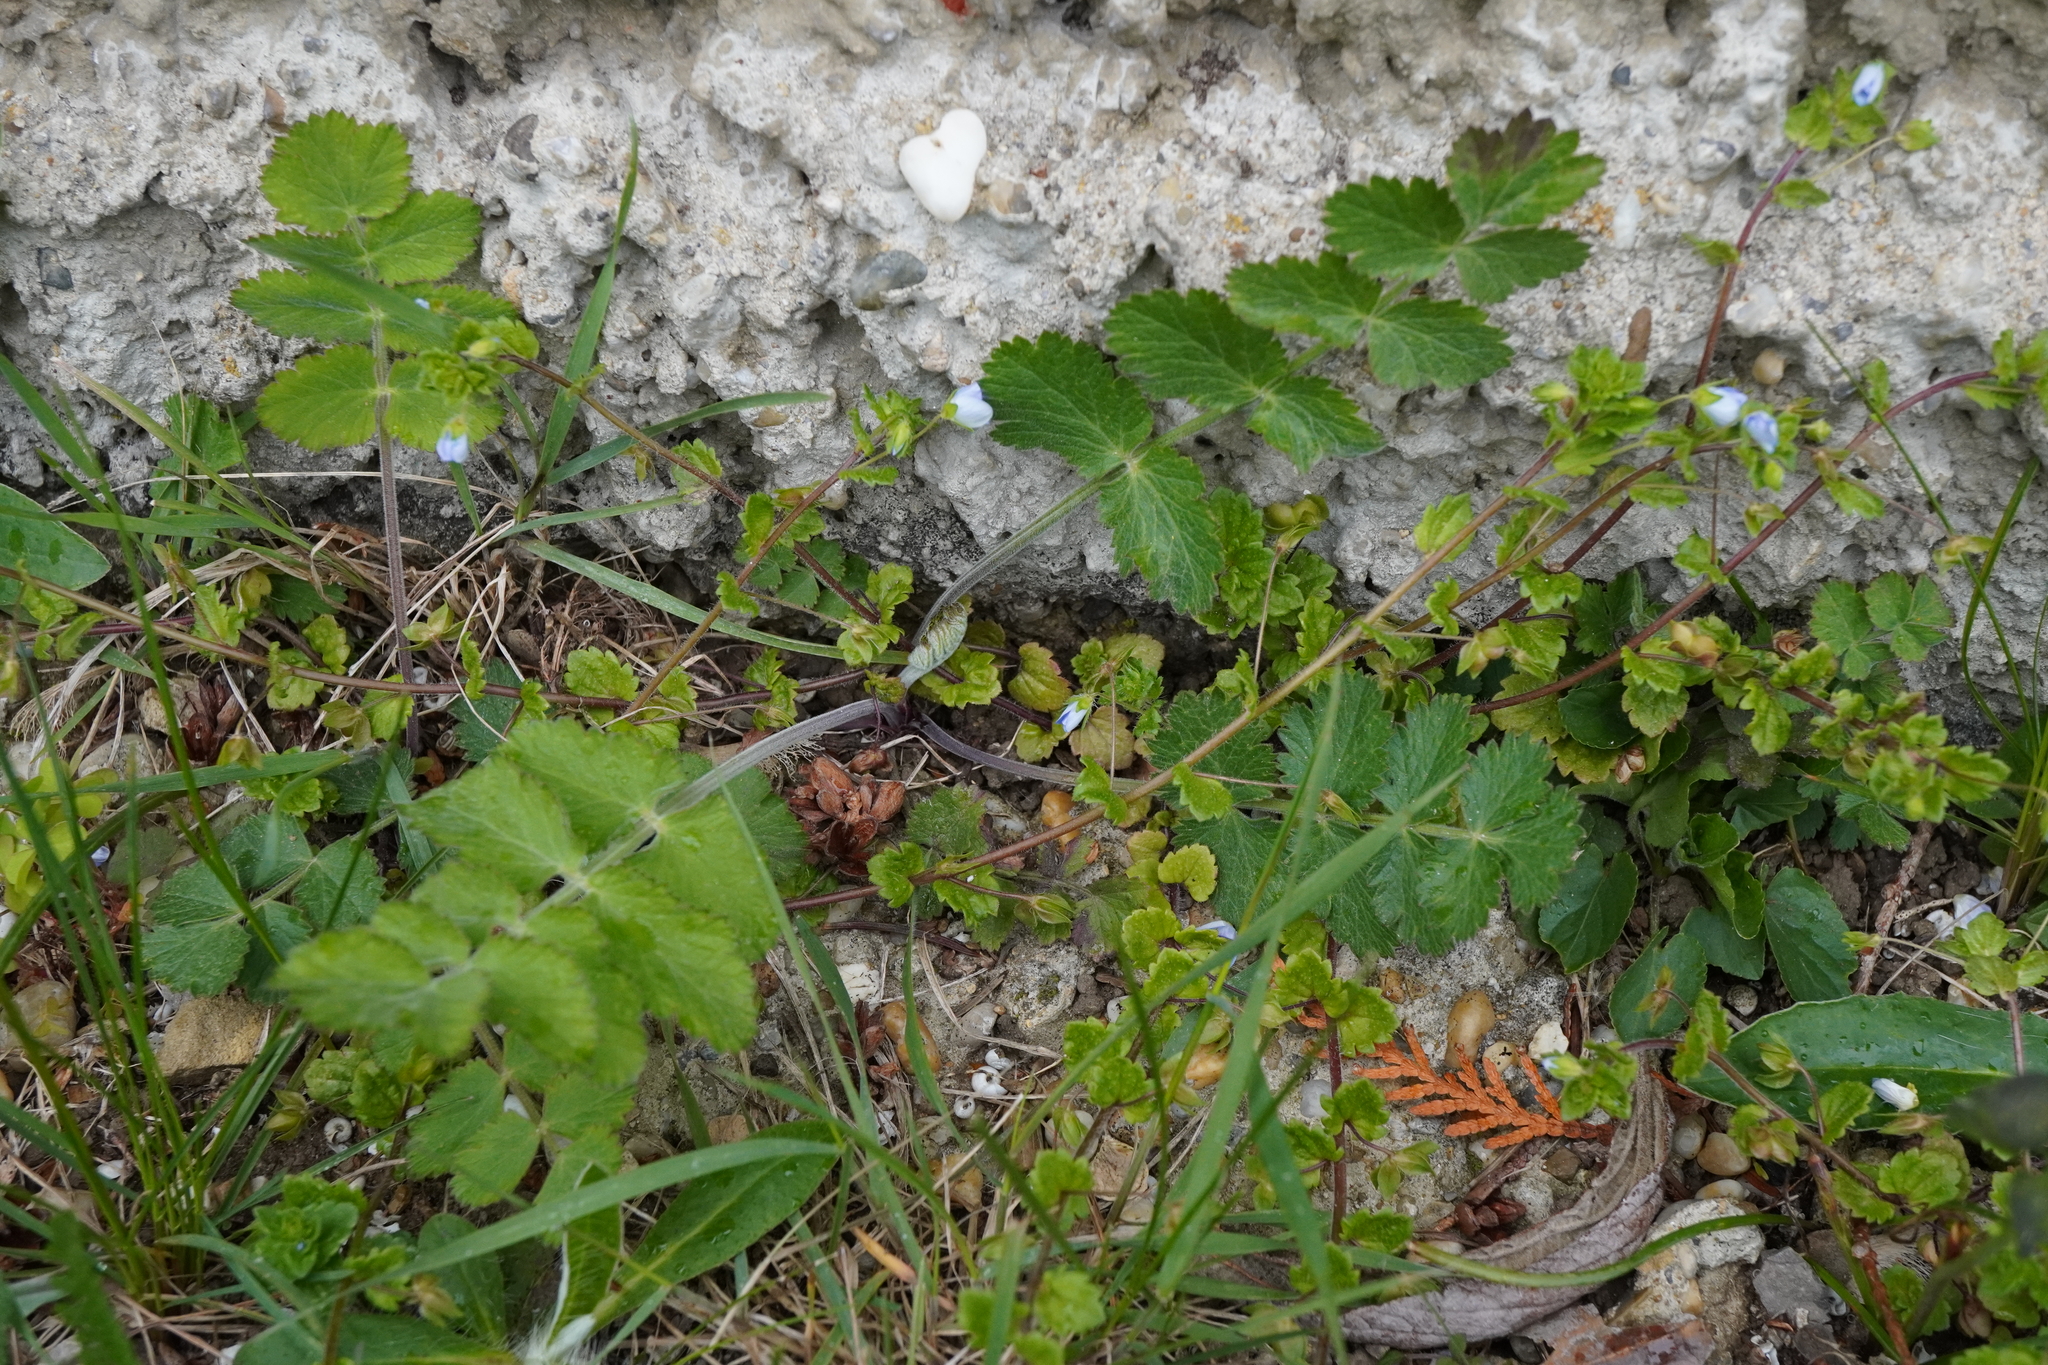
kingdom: Plantae
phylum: Tracheophyta
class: Magnoliopsida
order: Apiales
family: Apiaceae
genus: Pimpinella
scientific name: Pimpinella saxifraga
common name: Burnet-saxifrage
